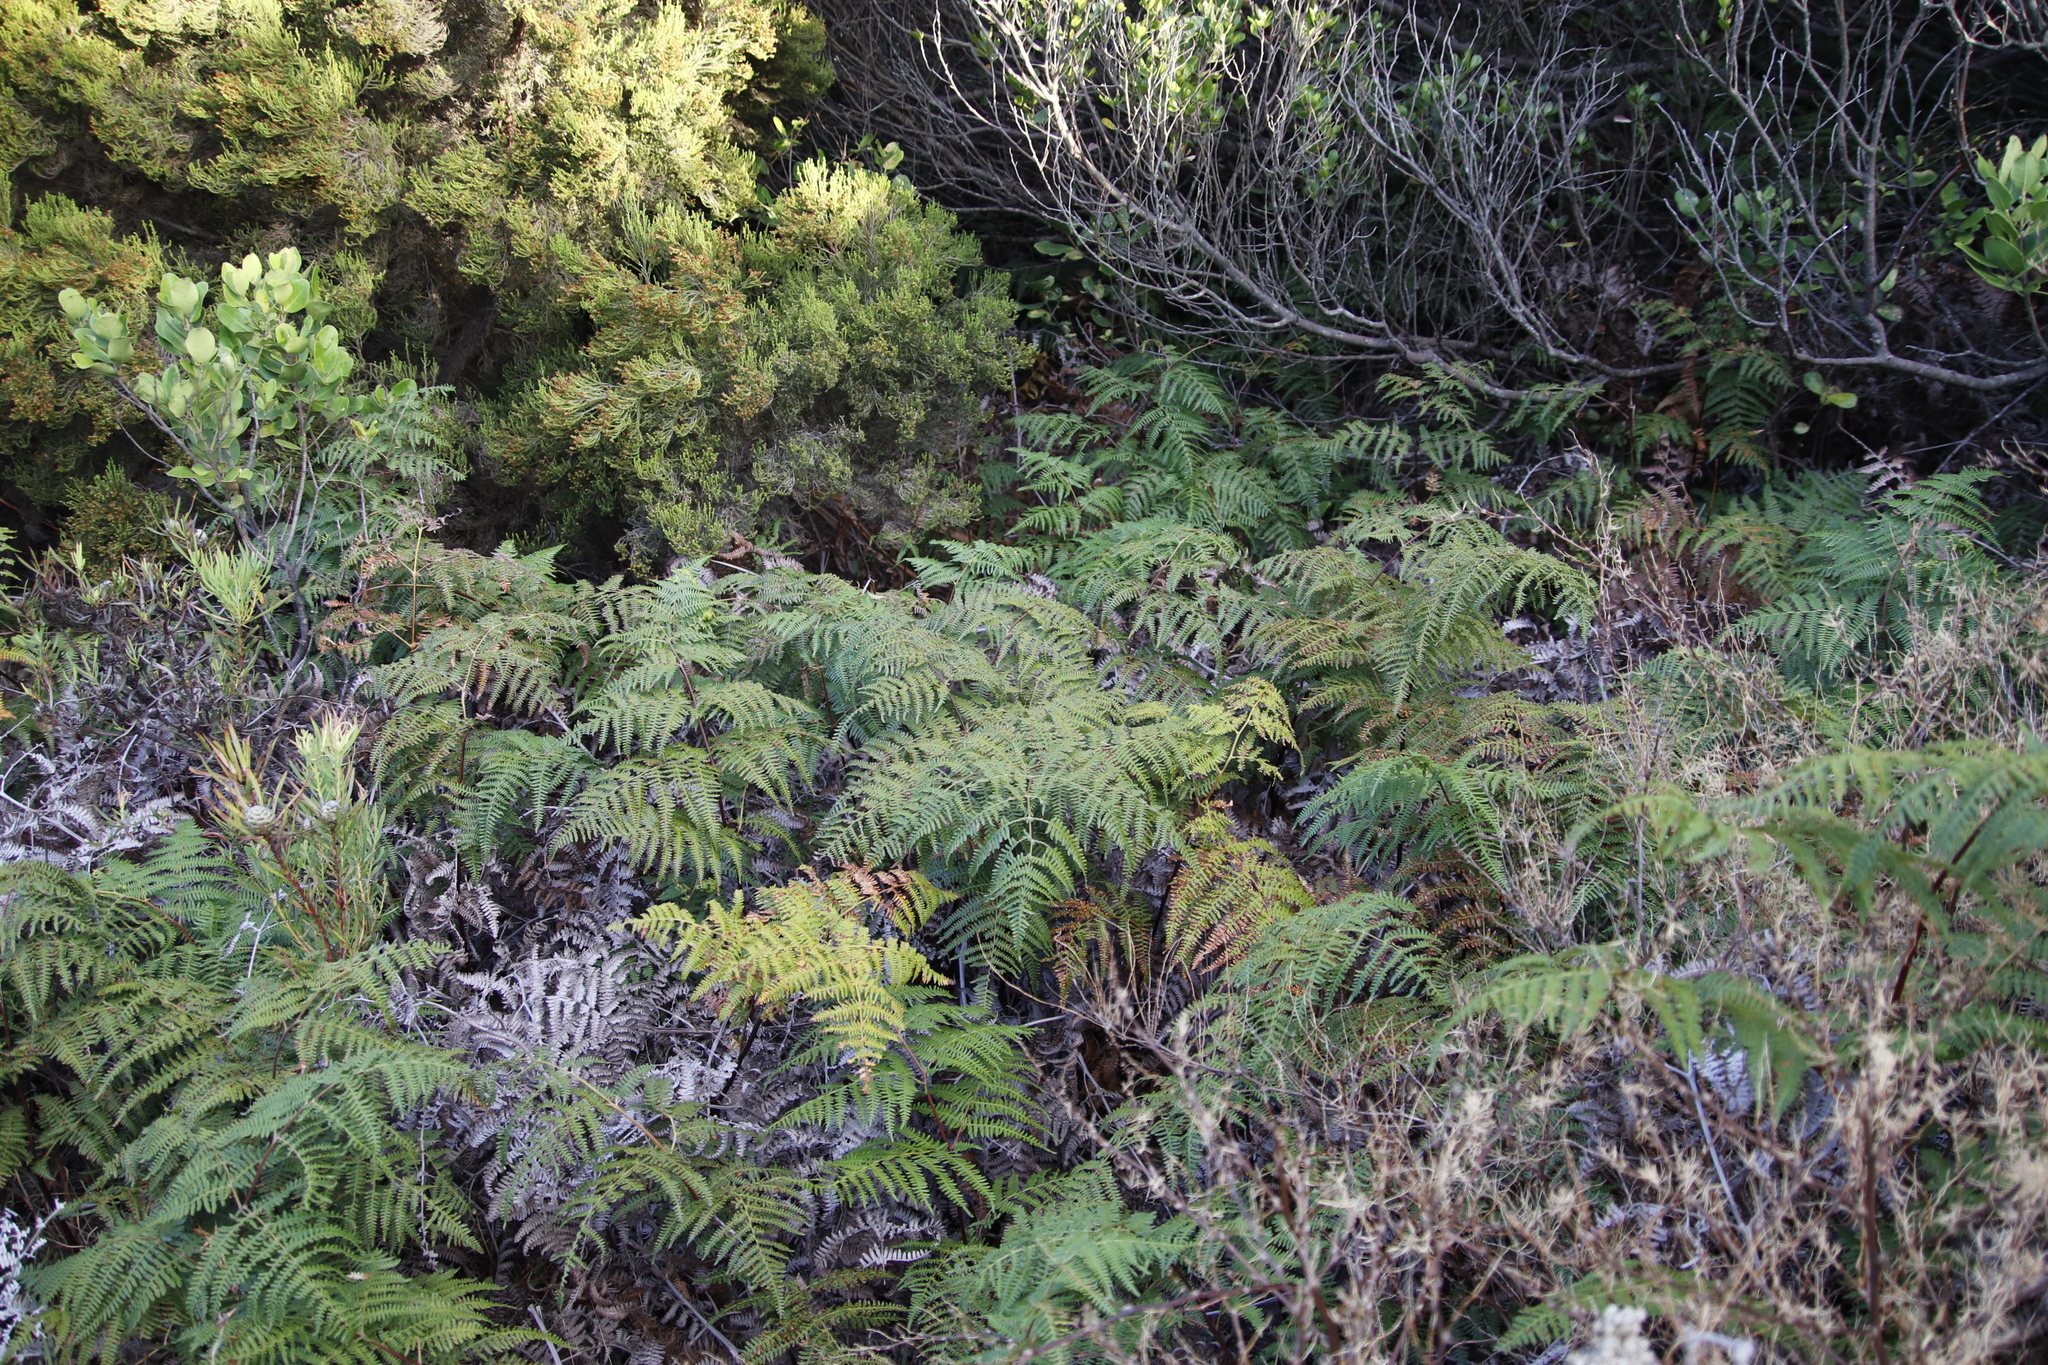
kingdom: Plantae
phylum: Tracheophyta
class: Polypodiopsida
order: Polypodiales
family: Dennstaedtiaceae
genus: Pteridium
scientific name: Pteridium aquilinum
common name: Bracken
